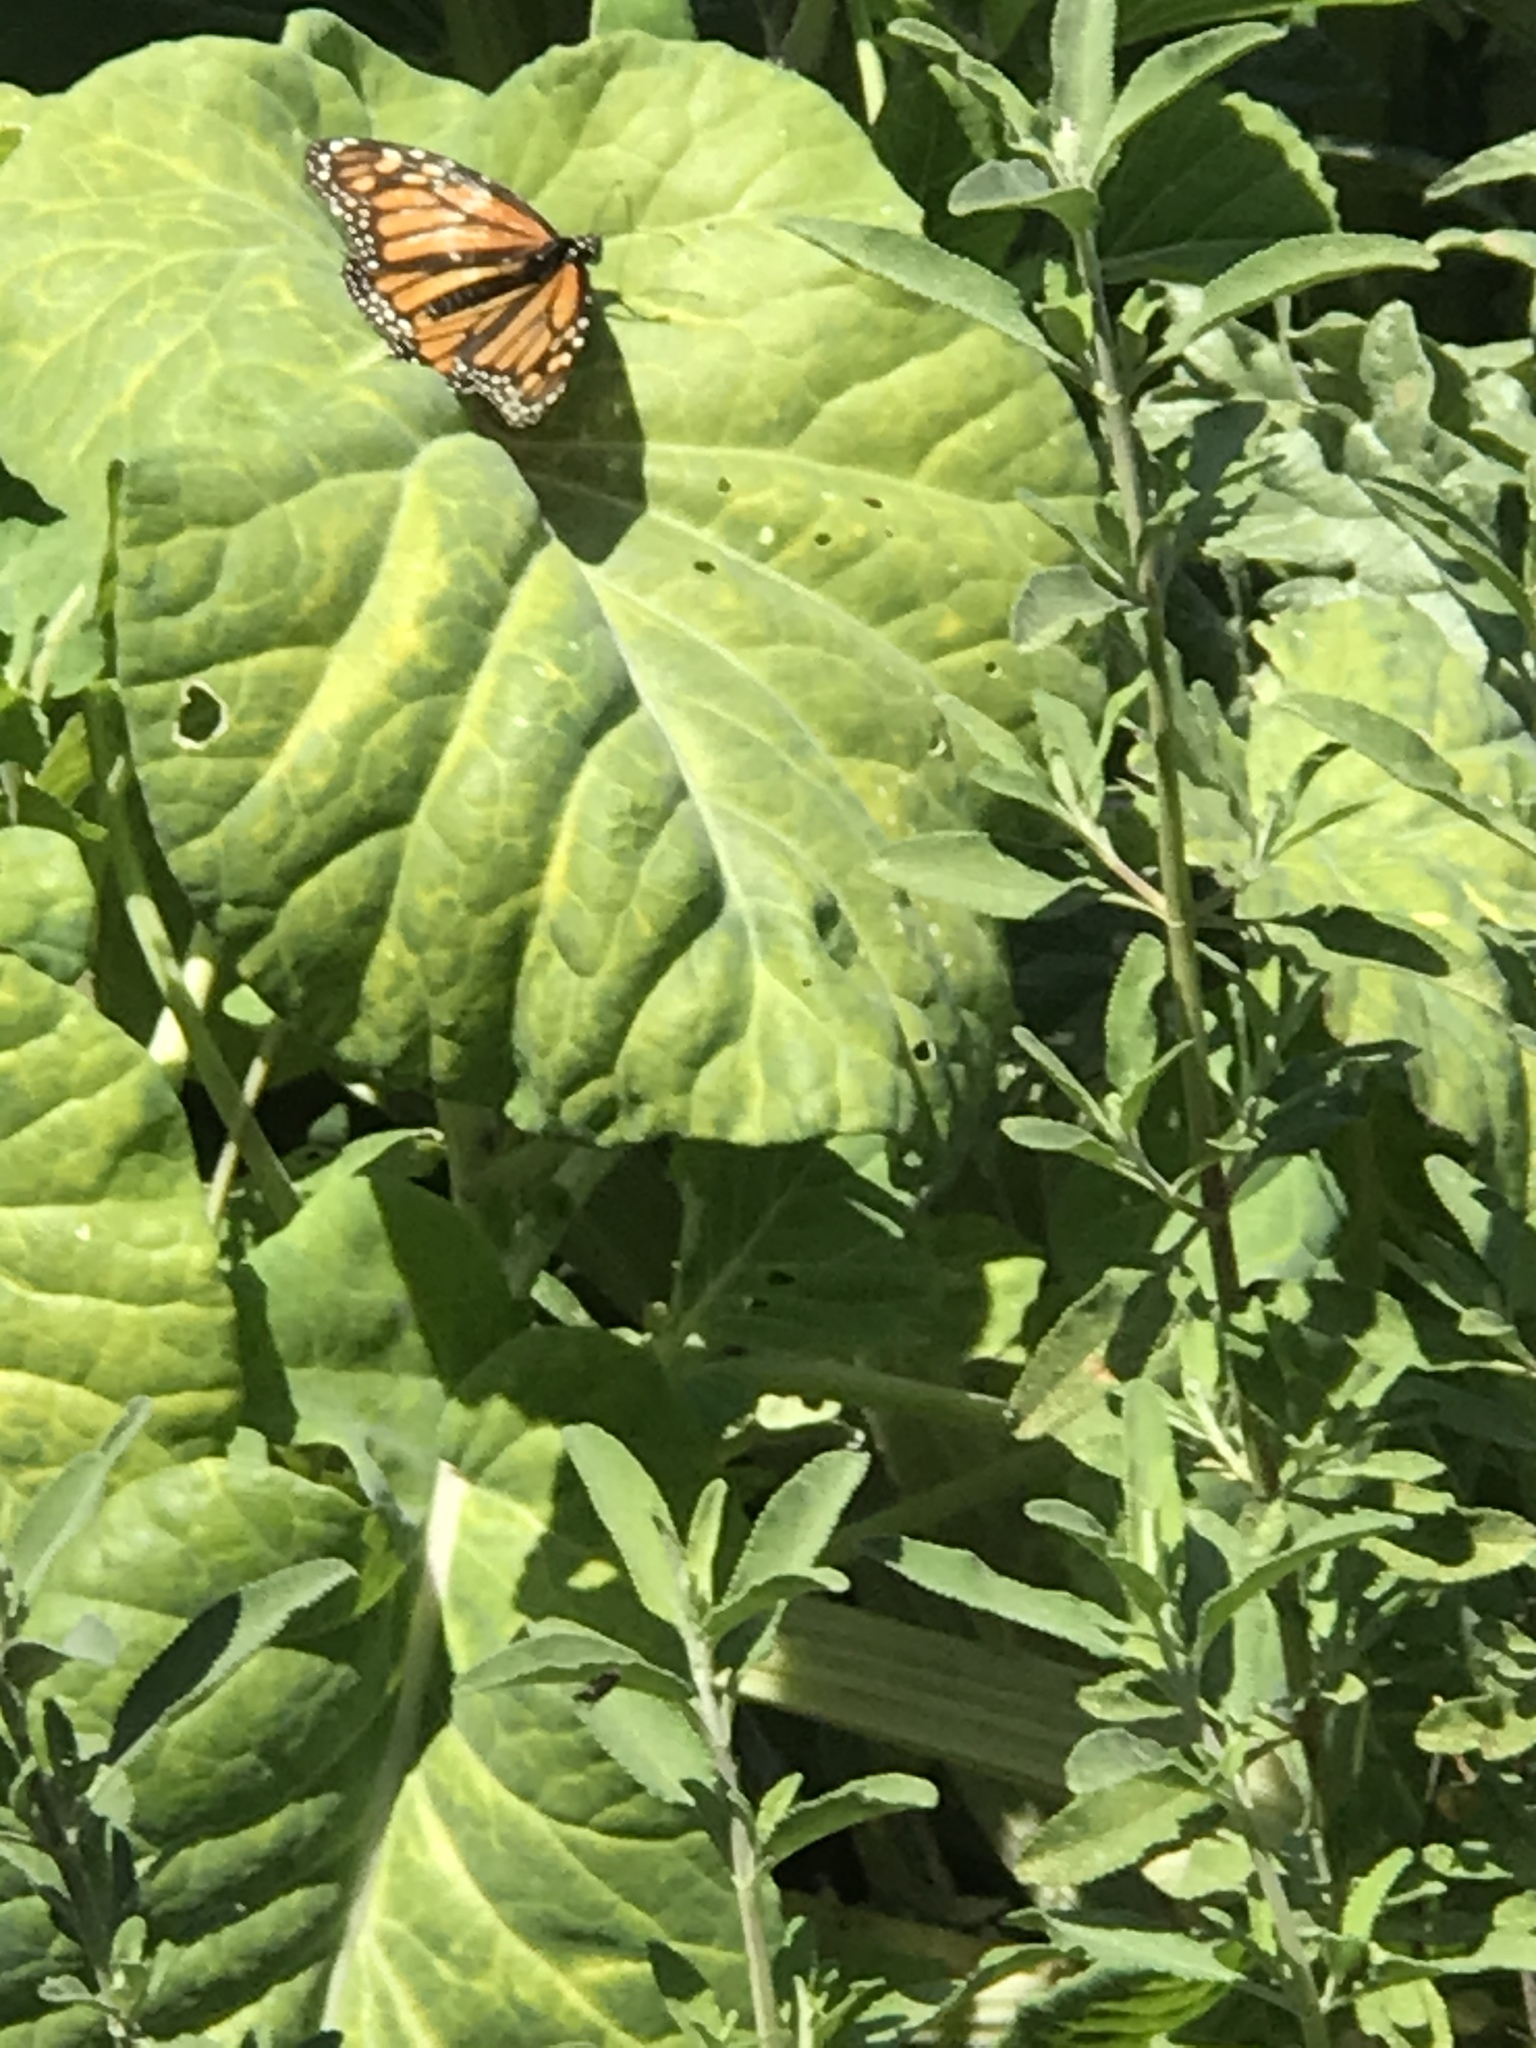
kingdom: Animalia
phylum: Arthropoda
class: Insecta
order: Lepidoptera
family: Nymphalidae
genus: Danaus
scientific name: Danaus plexippus
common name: Monarch
